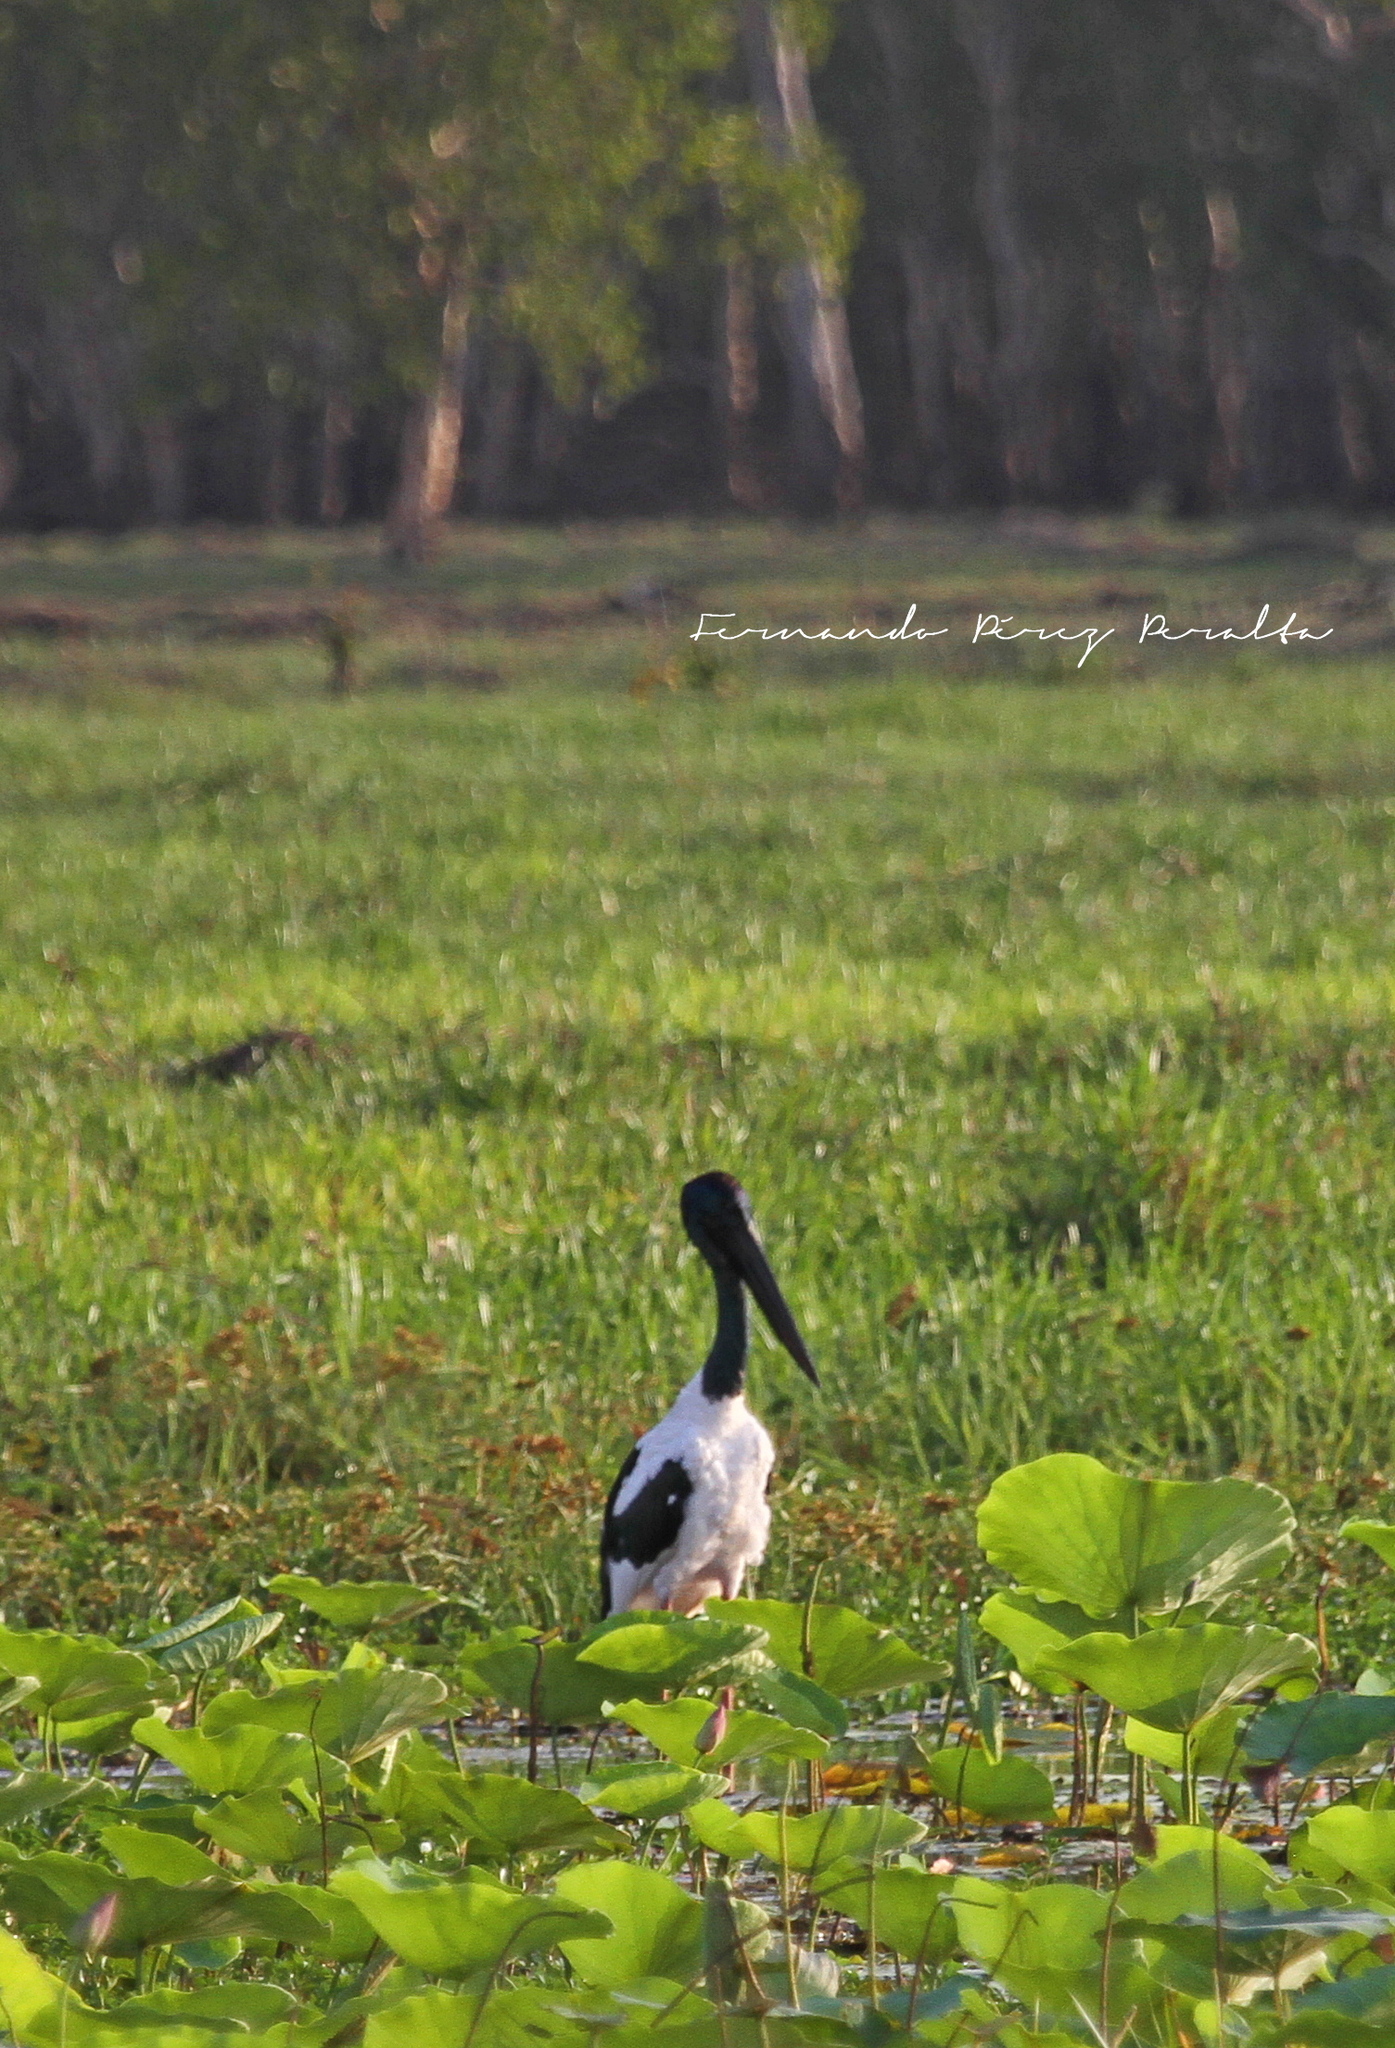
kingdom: Animalia
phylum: Chordata
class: Aves
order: Ciconiiformes
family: Ciconiidae
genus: Ephippiorhynchus
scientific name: Ephippiorhynchus asiaticus
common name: Black-necked stork
